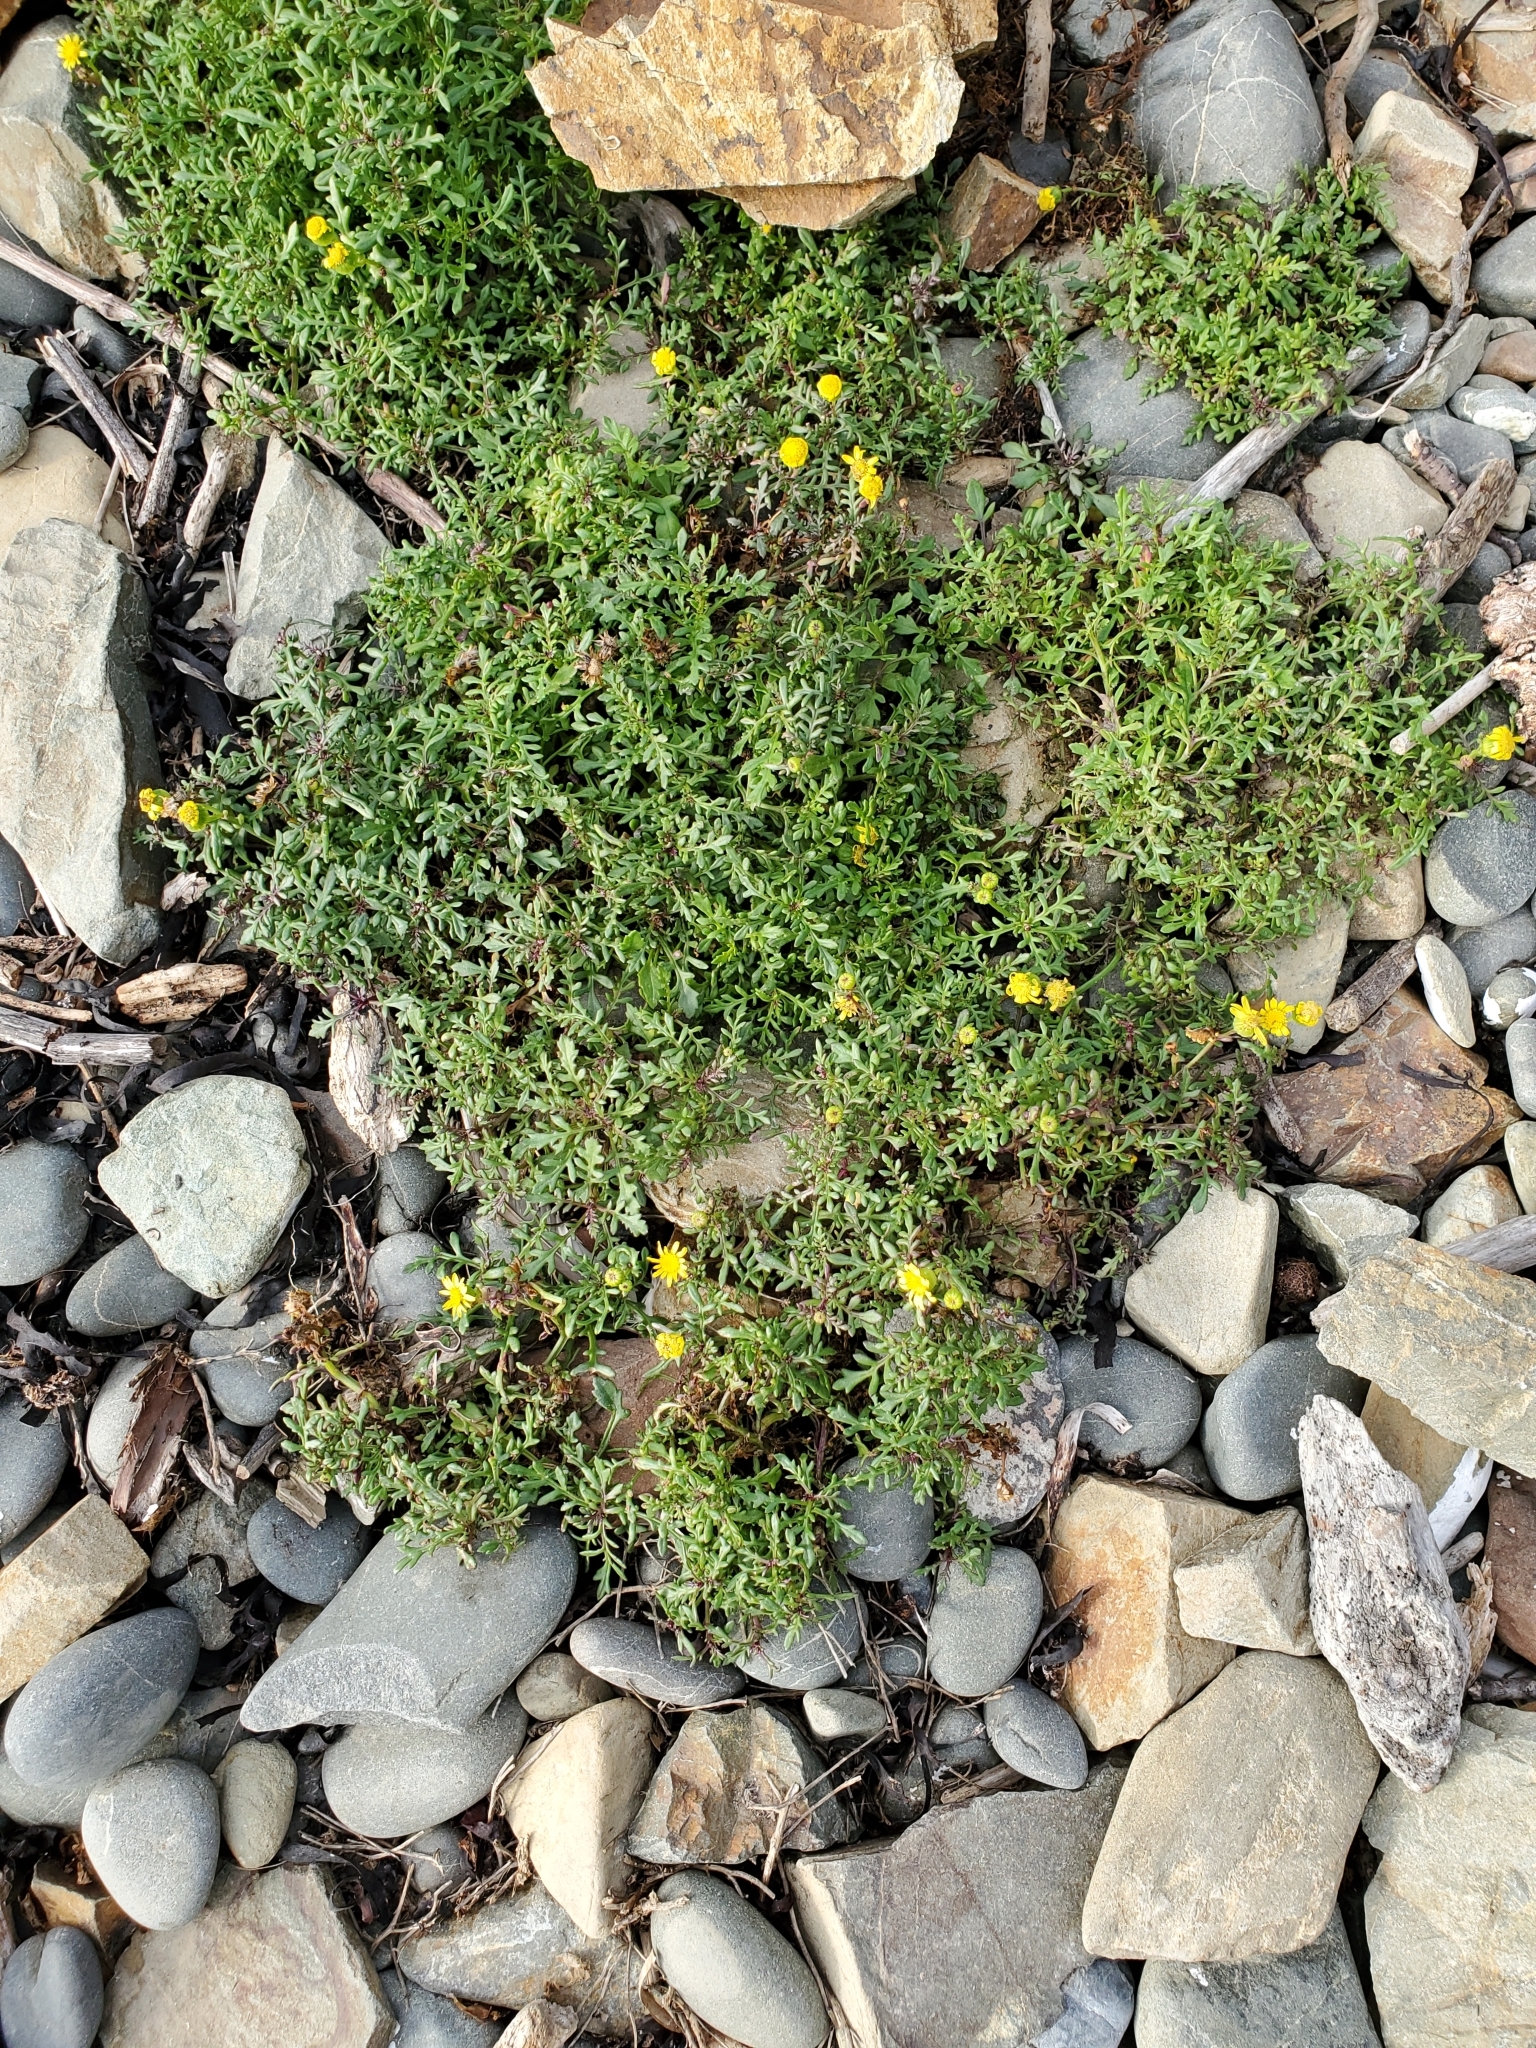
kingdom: Plantae
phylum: Tracheophyta
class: Magnoliopsida
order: Asterales
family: Asteraceae
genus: Senecio
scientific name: Senecio lautus
